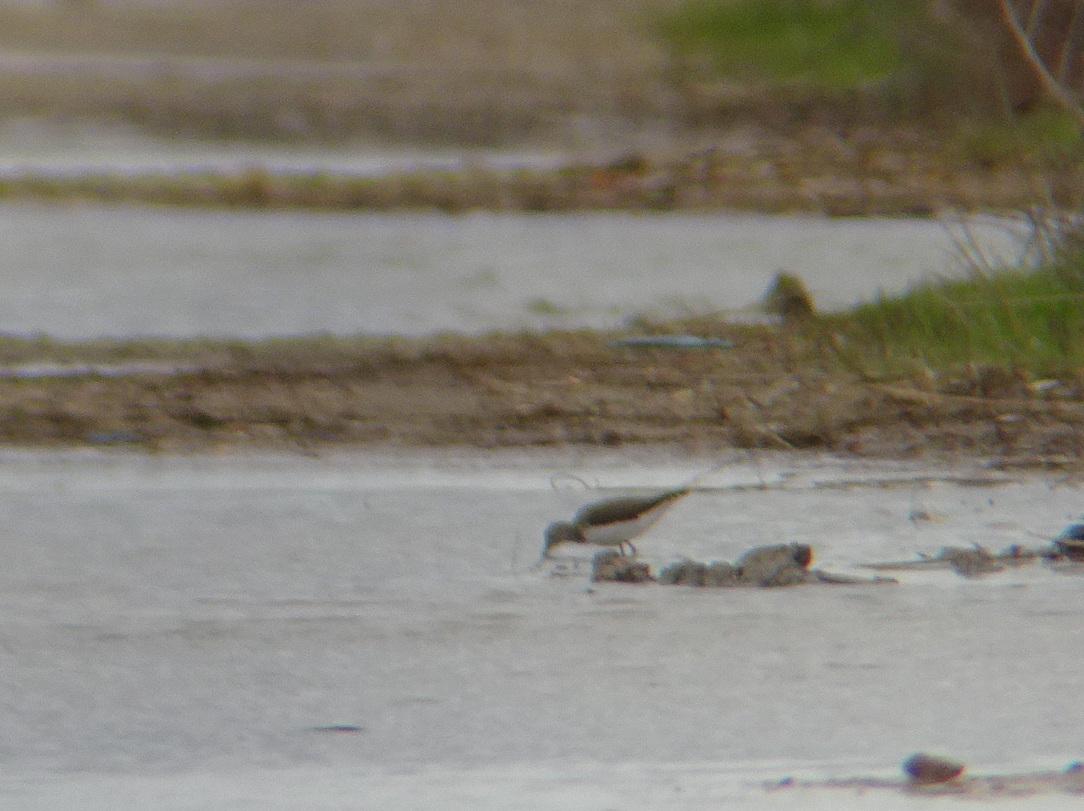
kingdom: Animalia
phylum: Chordata
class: Aves
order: Charadriiformes
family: Scolopacidae
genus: Tringa
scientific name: Tringa ochropus
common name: Green sandpiper
